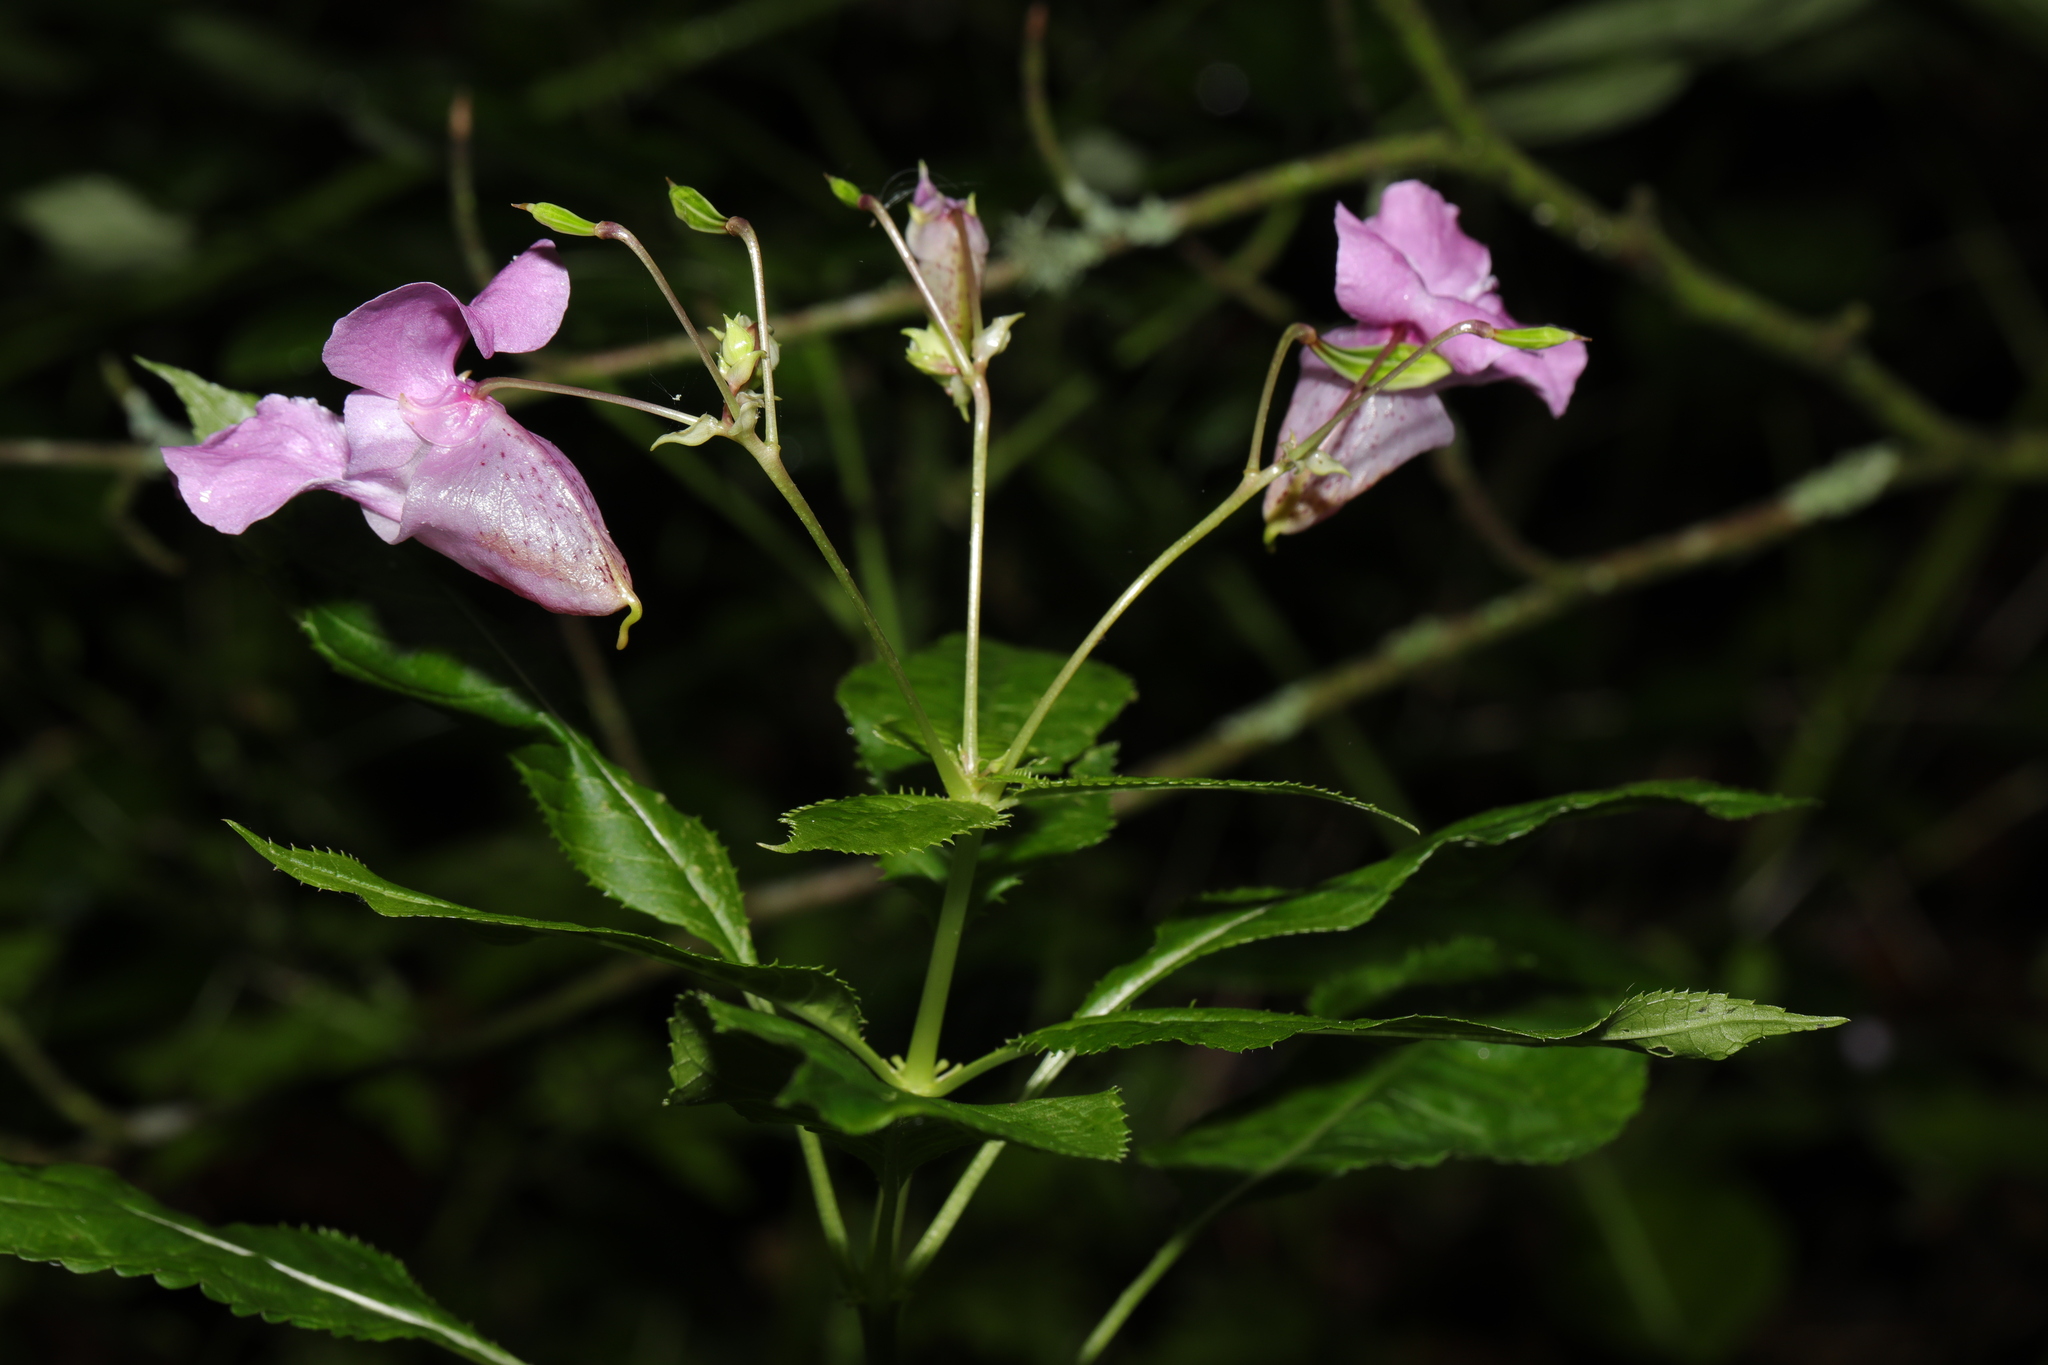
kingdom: Plantae
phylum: Tracheophyta
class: Magnoliopsida
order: Ericales
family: Balsaminaceae
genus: Impatiens
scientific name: Impatiens glandulifera
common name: Himalayan balsam
